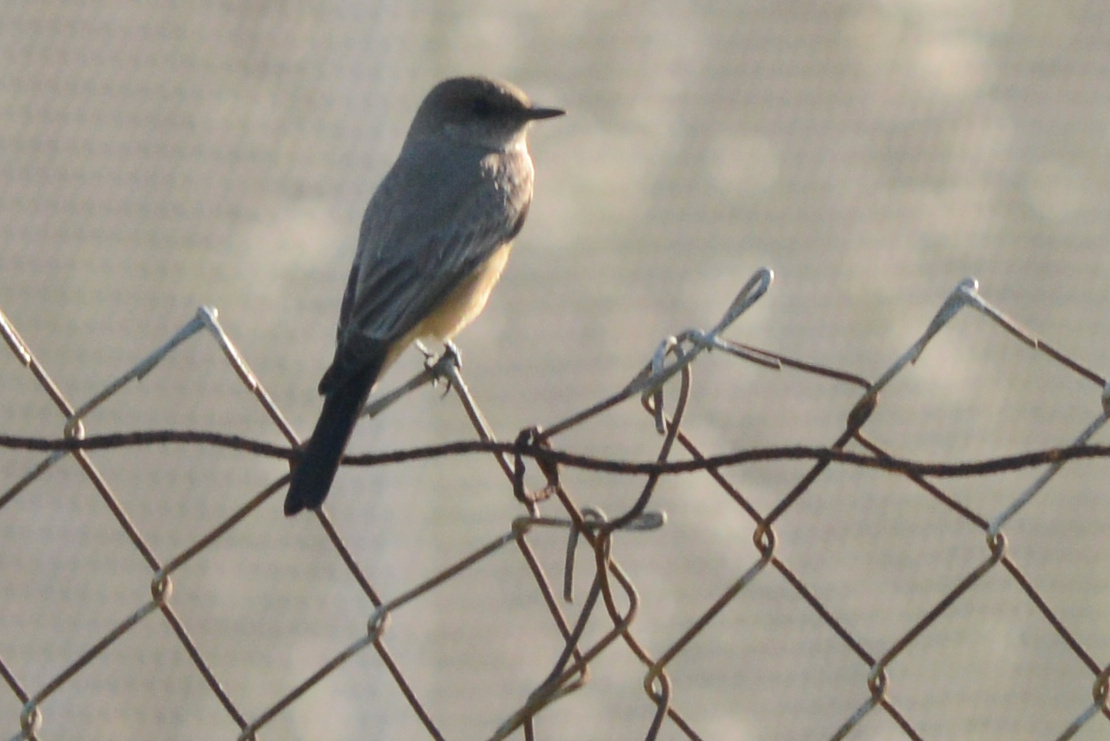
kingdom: Animalia
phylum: Chordata
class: Aves
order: Passeriformes
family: Tyrannidae
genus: Sayornis
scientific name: Sayornis saya
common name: Say's phoebe
